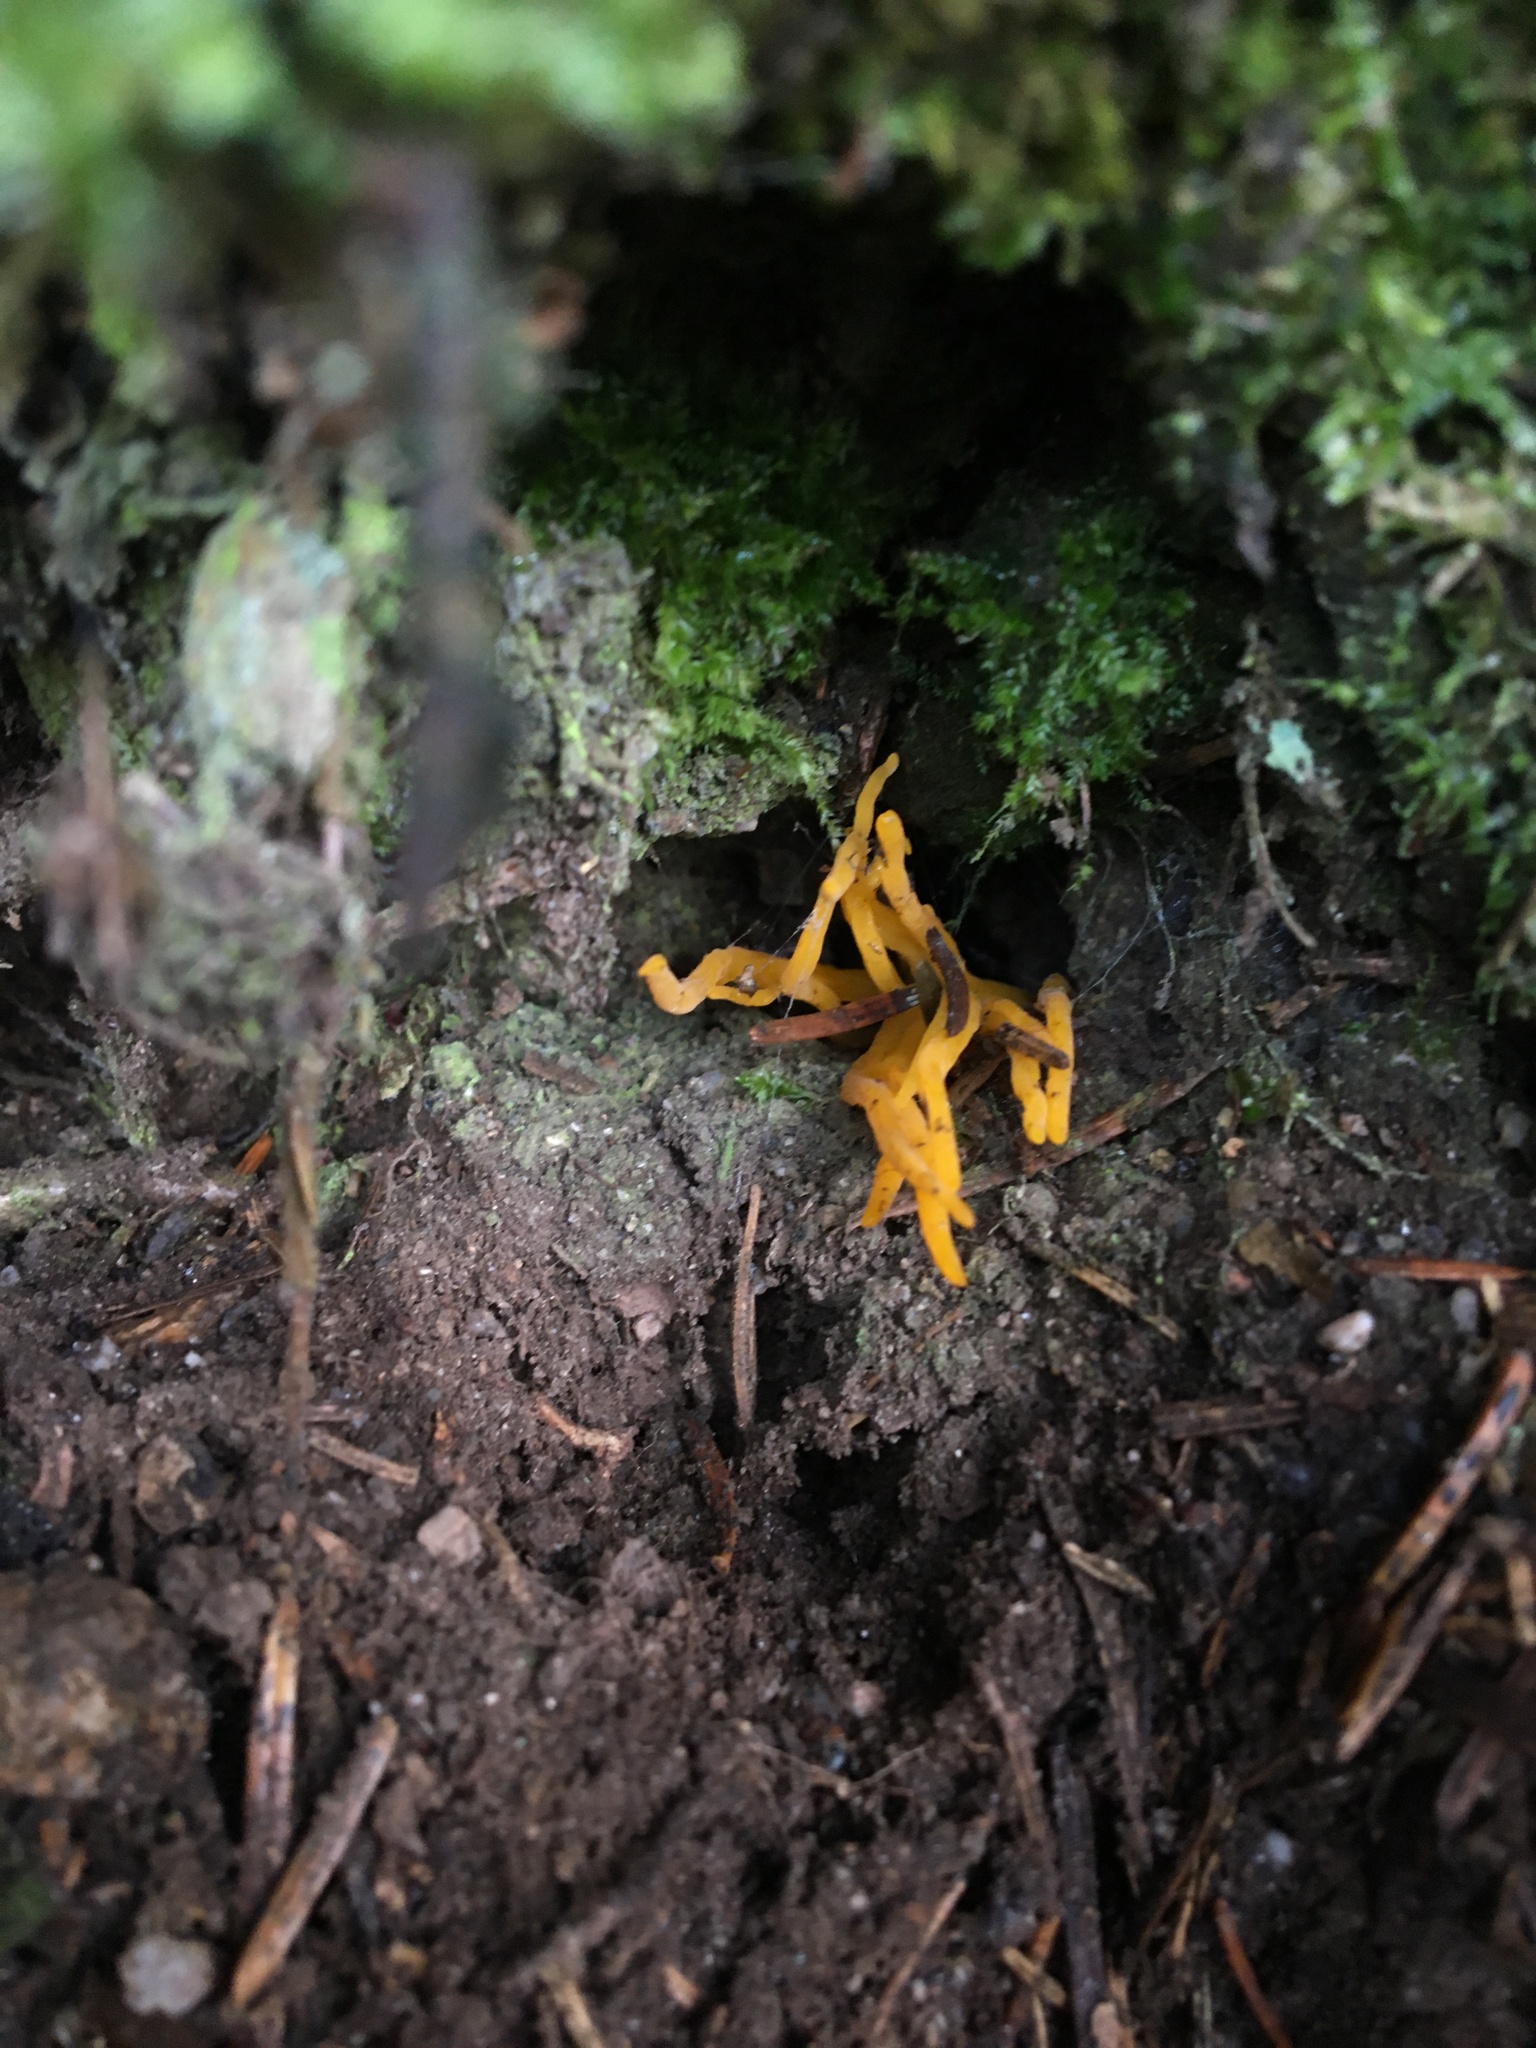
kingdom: Fungi
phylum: Basidiomycota
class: Dacrymycetes
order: Dacrymycetales
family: Dacrymycetaceae
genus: Calocera
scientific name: Calocera viscosa
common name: Yellow stagshorn
